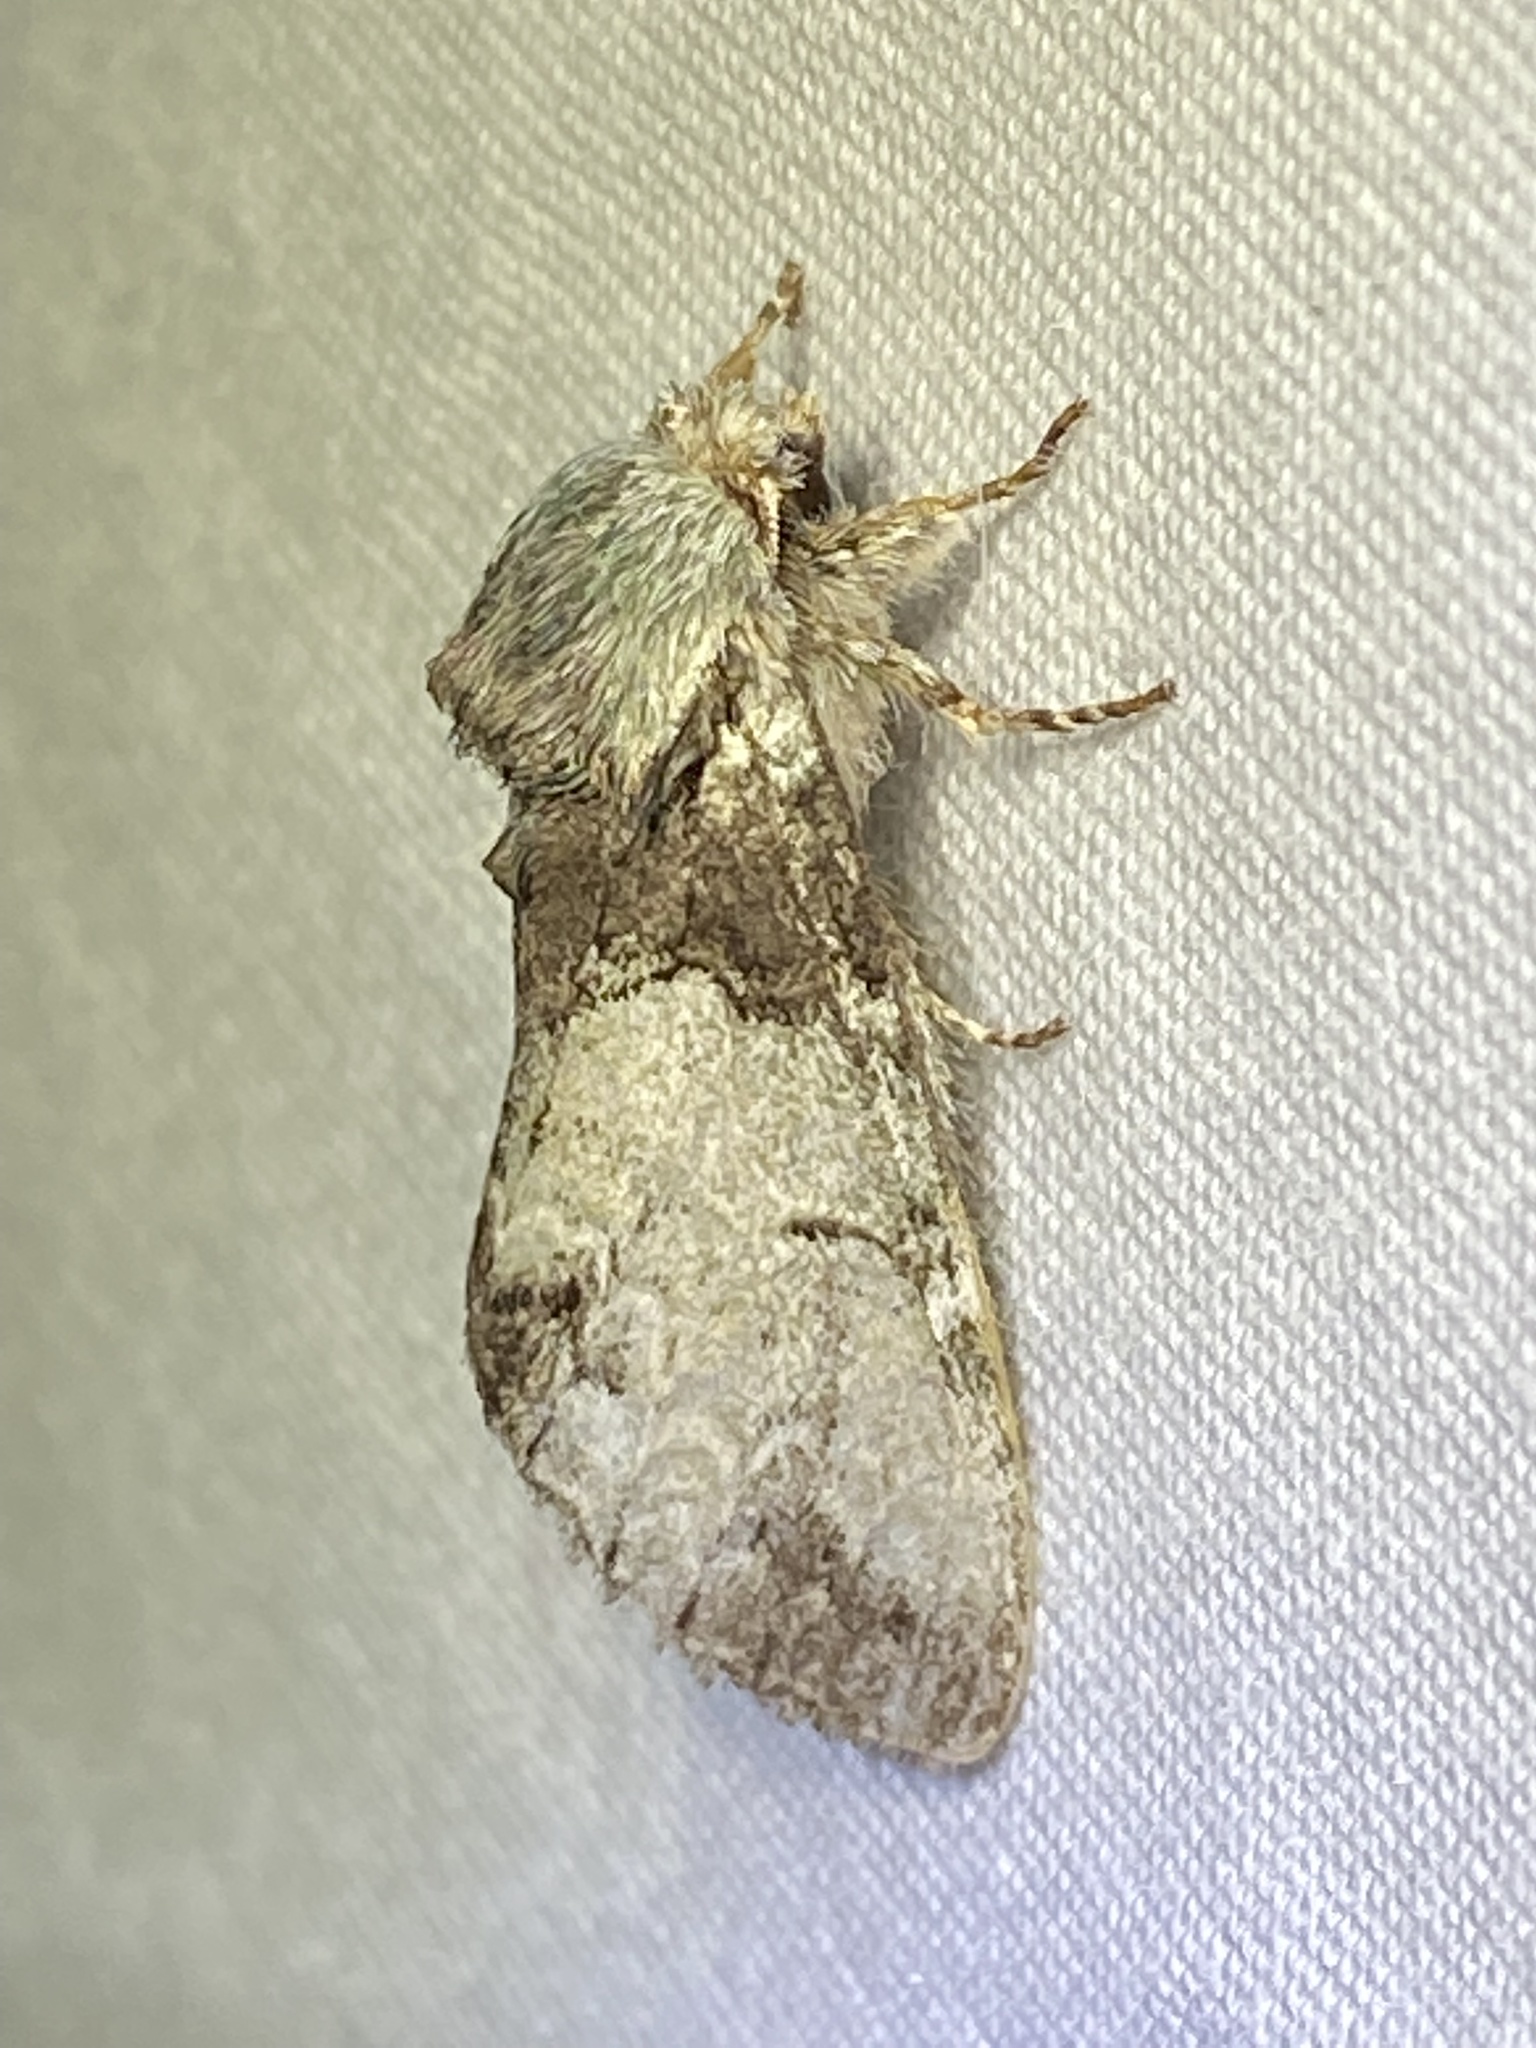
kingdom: Animalia
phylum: Arthropoda
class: Insecta
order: Lepidoptera
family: Notodontidae
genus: Macrurocampa
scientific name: Macrurocampa marthesia
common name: Mottled prominent
